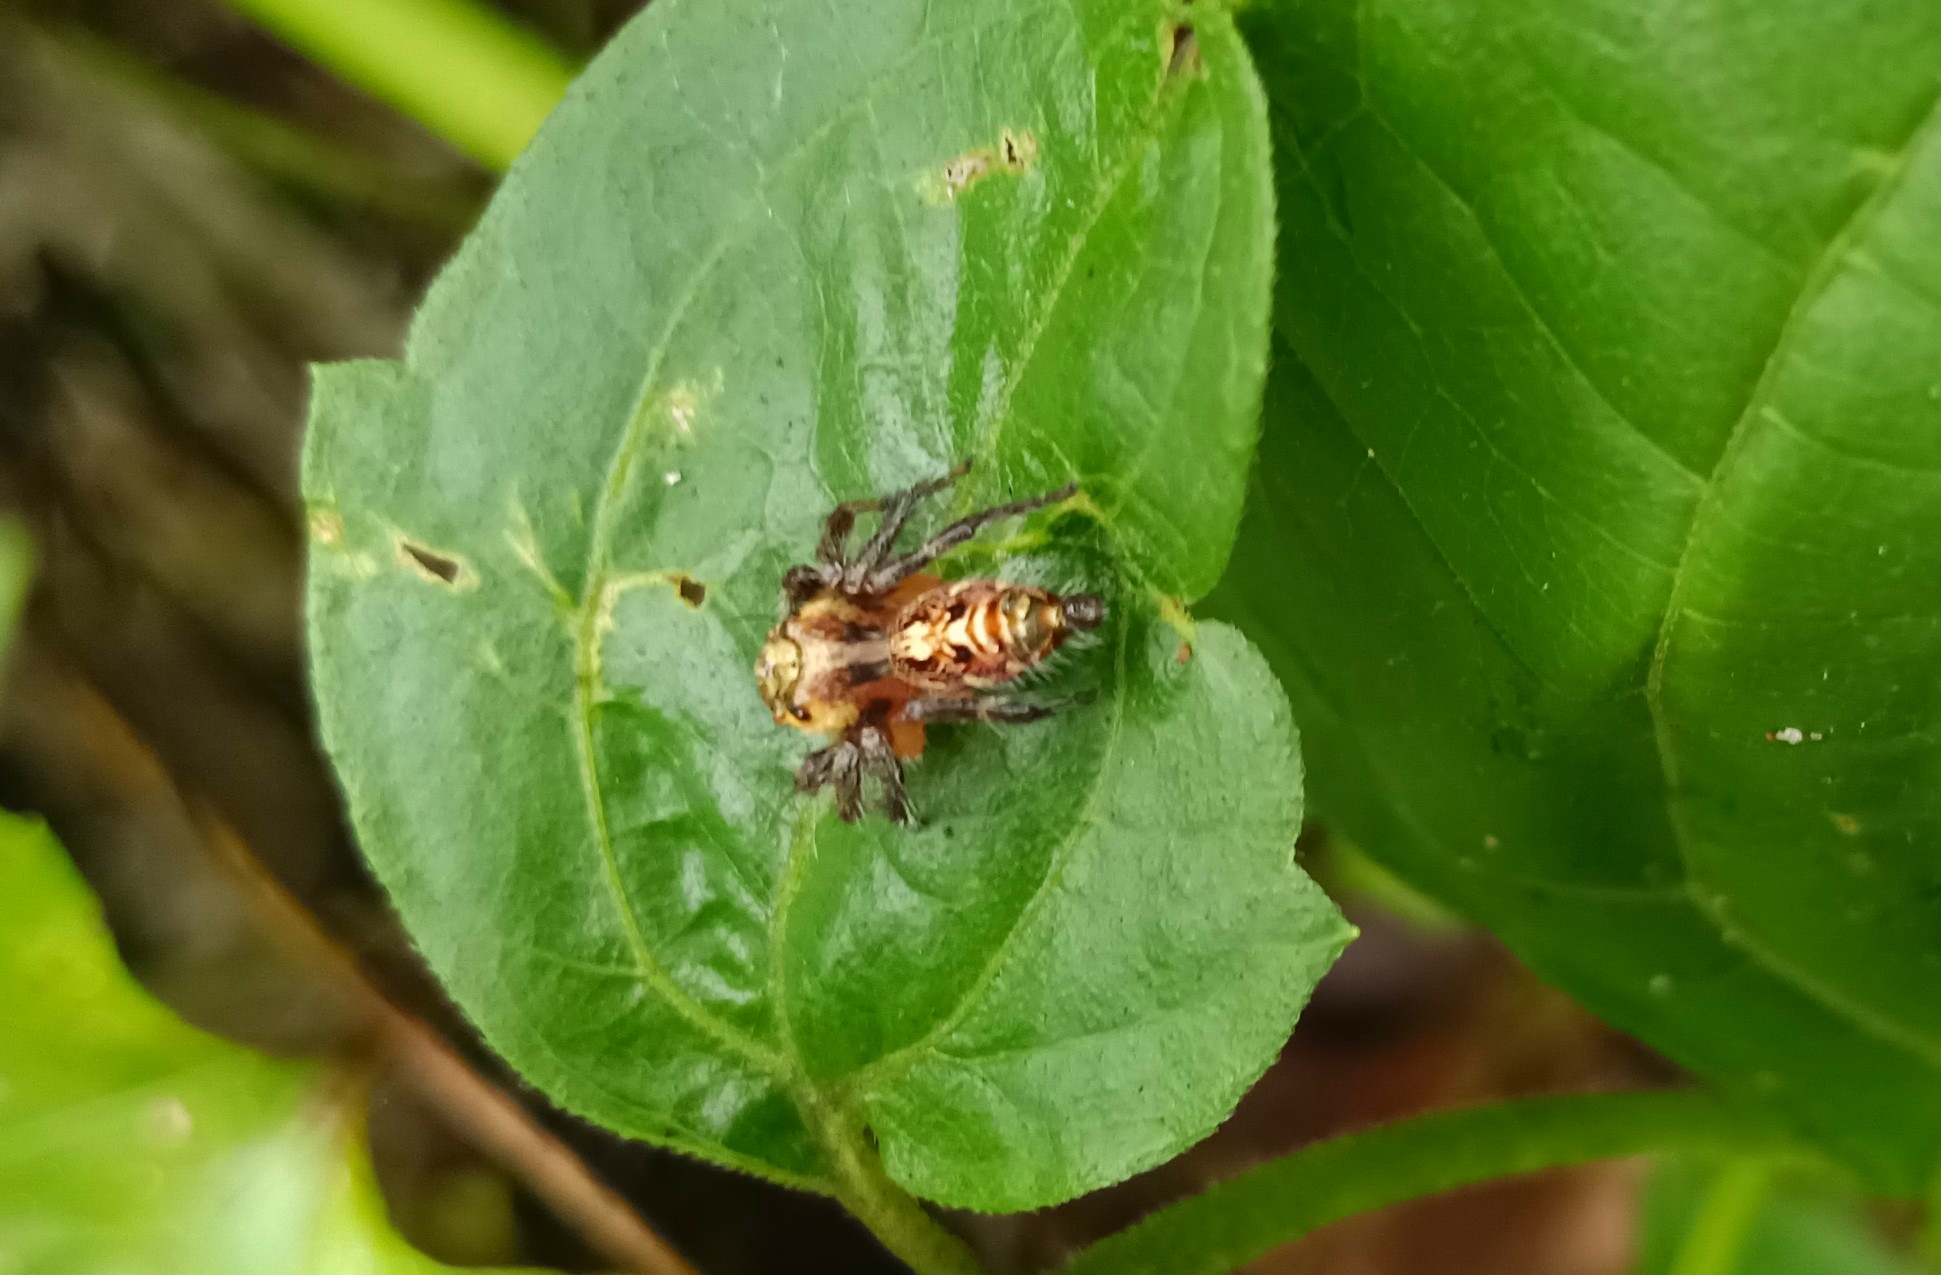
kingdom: Animalia
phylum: Arthropoda
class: Arachnida
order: Araneae
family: Salticidae
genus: Hyllus
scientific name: Hyllus semicupreus
